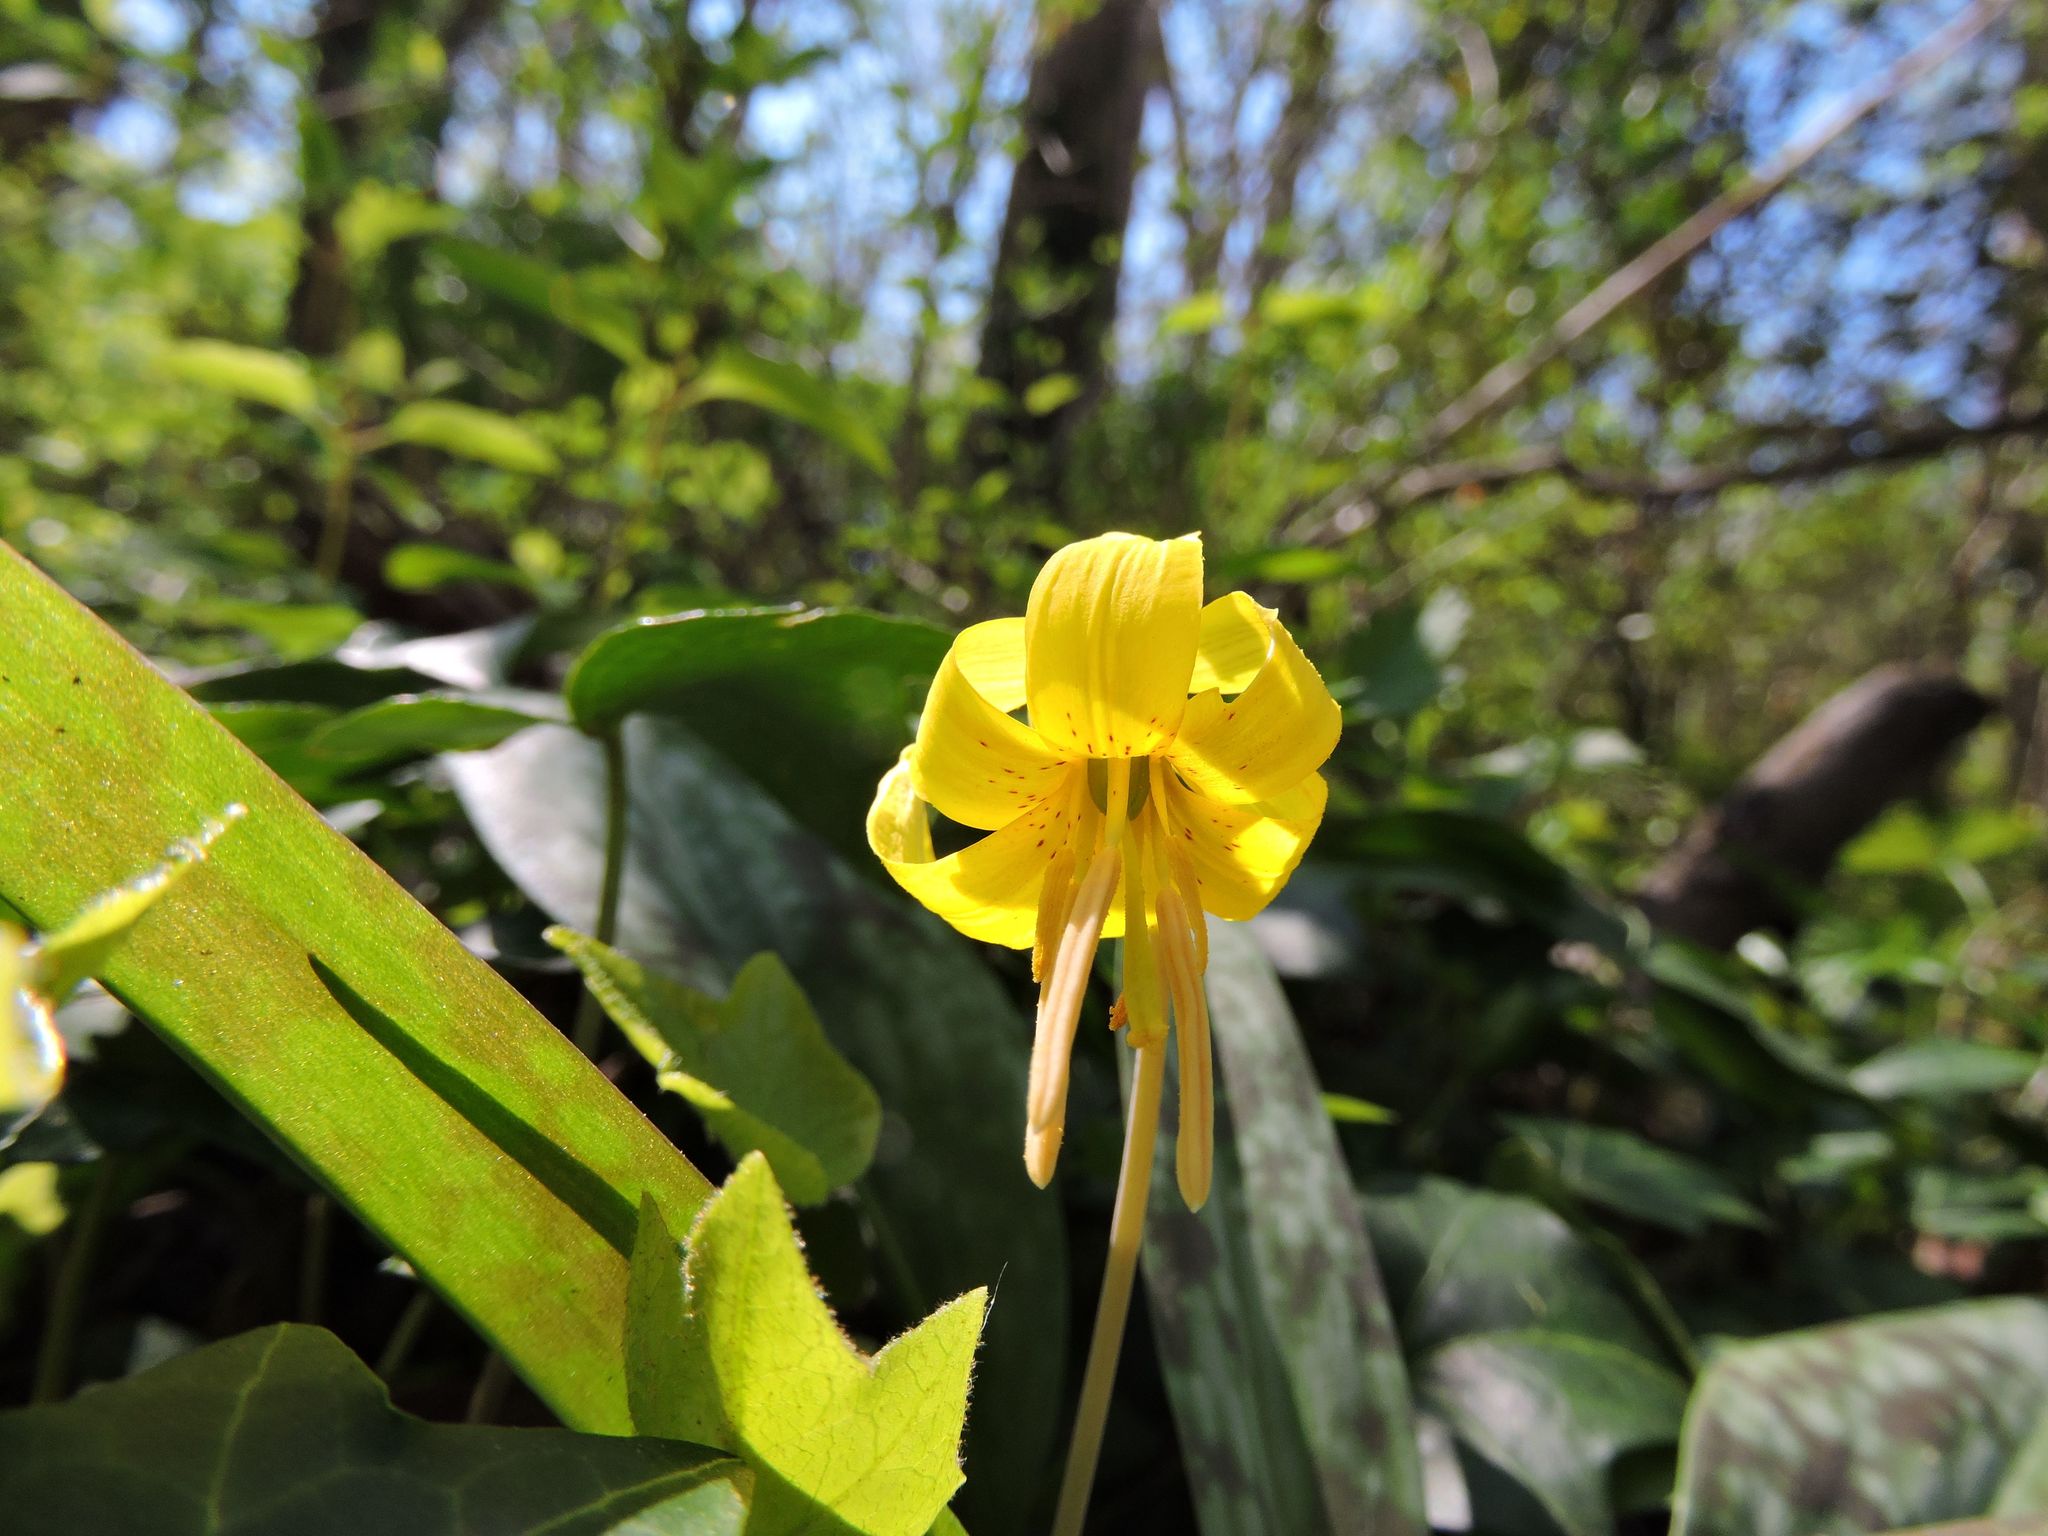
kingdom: Plantae
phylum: Tracheophyta
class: Liliopsida
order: Liliales
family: Liliaceae
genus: Erythronium
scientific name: Erythronium americanum
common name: Yellow adder's-tongue
